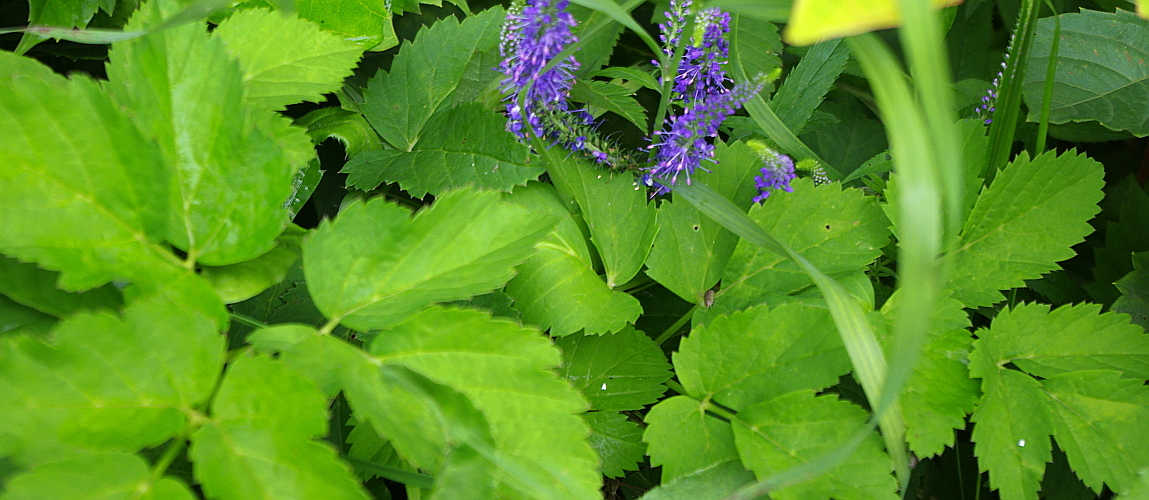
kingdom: Plantae
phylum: Tracheophyta
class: Magnoliopsida
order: Apiales
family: Apiaceae
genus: Aegopodium
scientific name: Aegopodium podagraria
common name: Ground-elder
